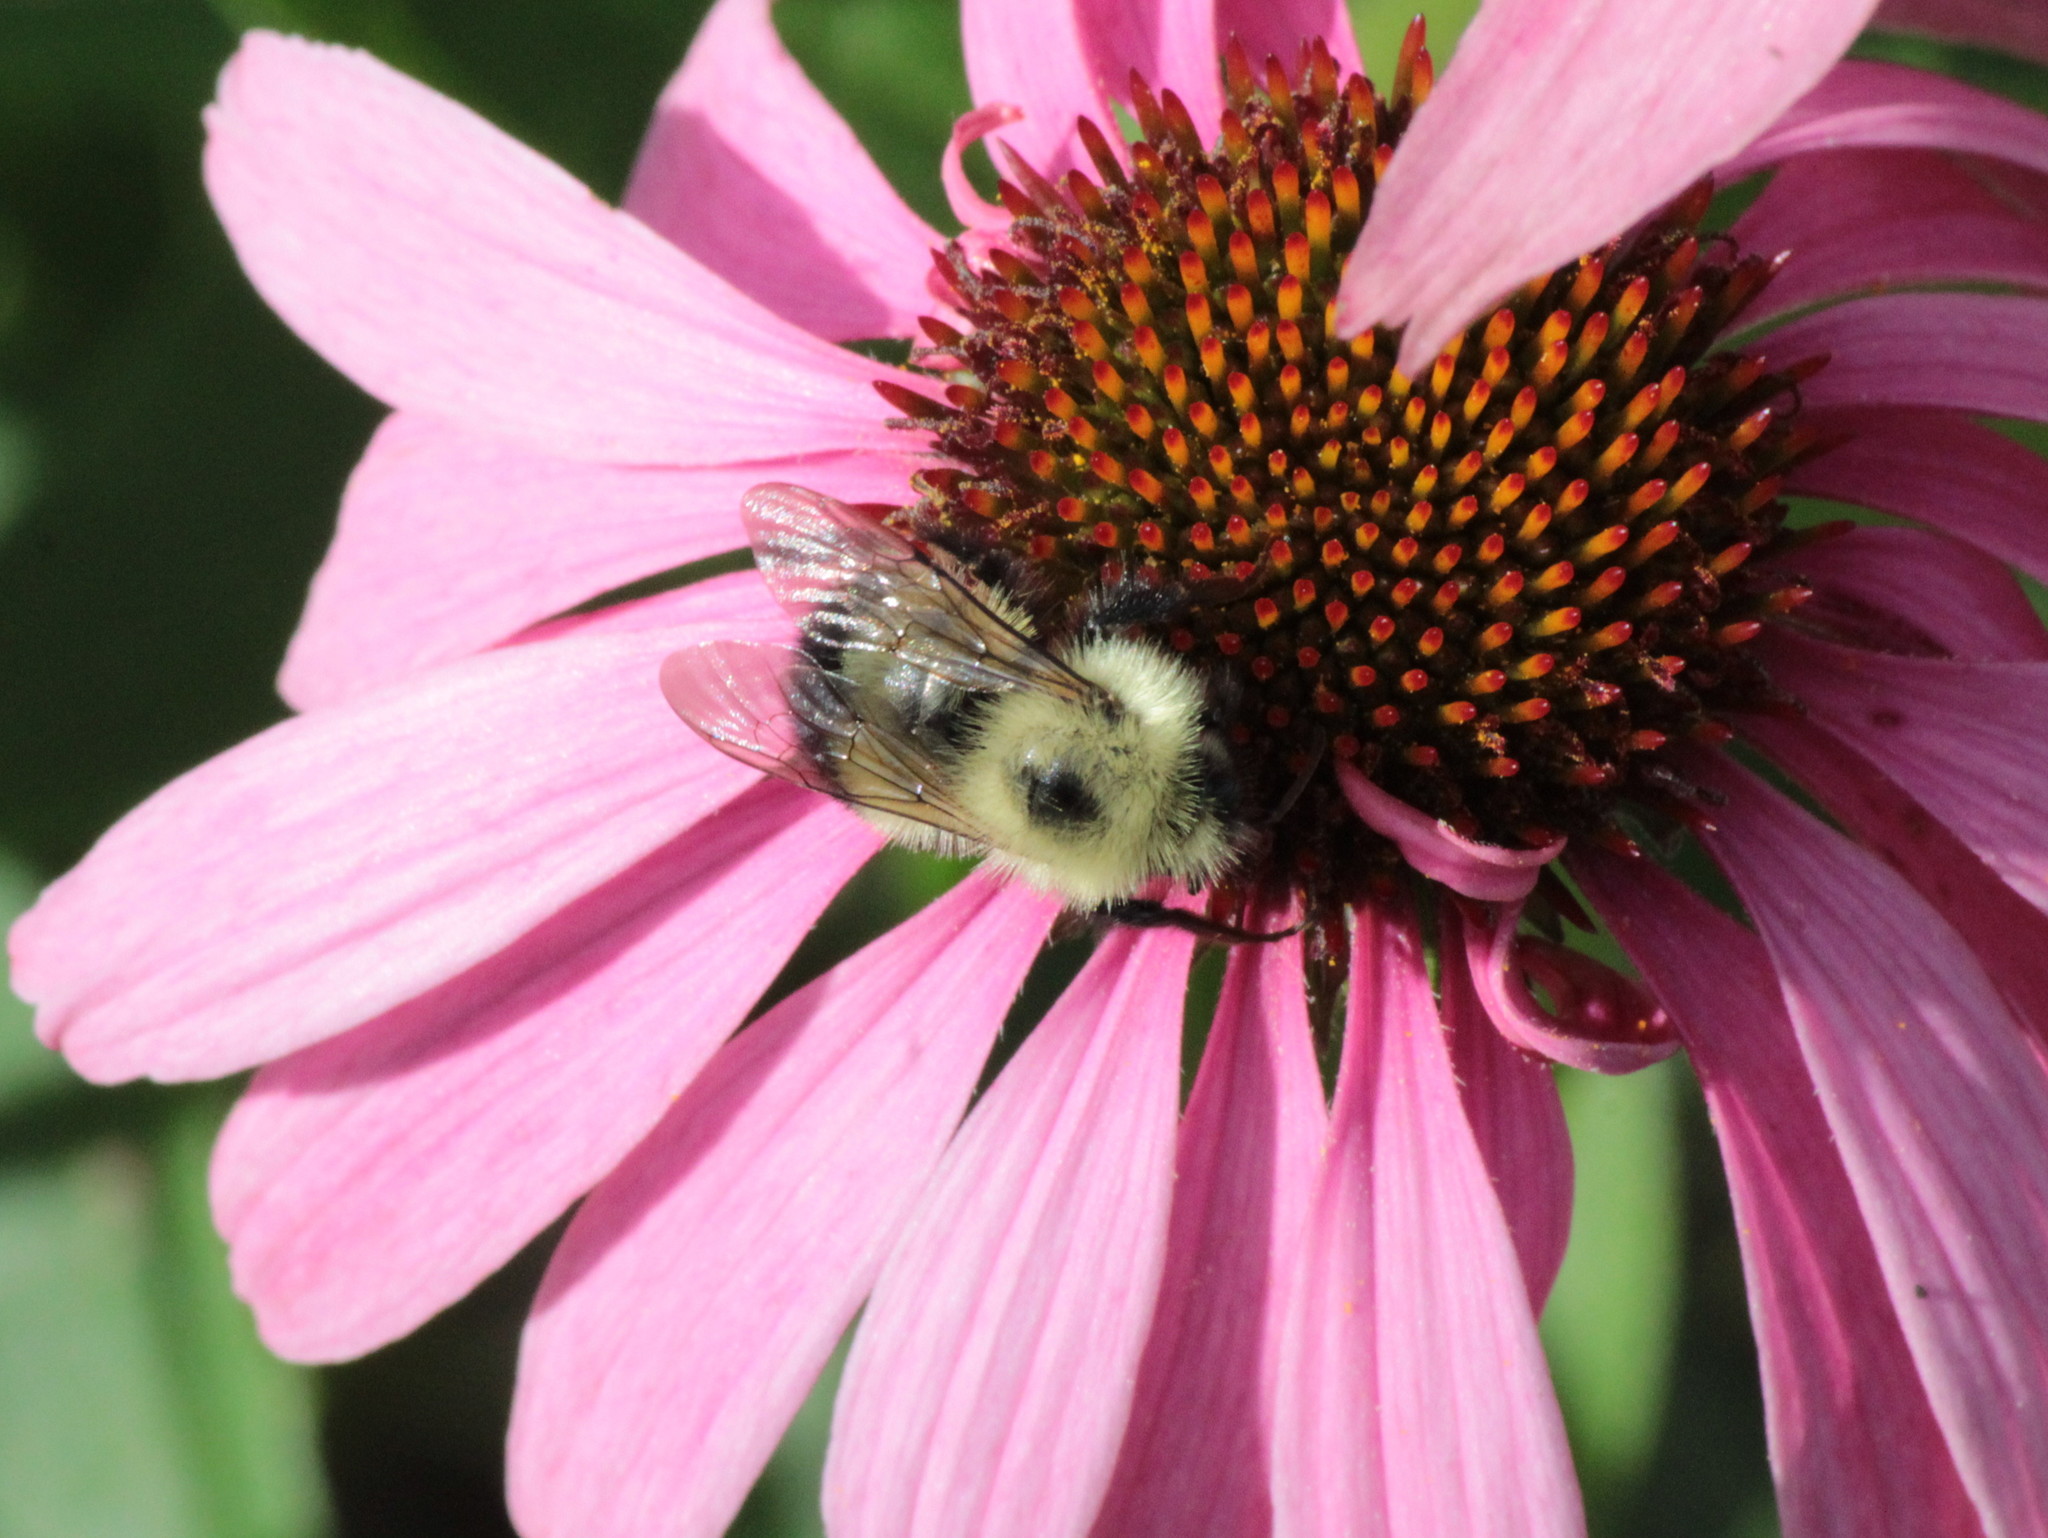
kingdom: Animalia
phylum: Arthropoda
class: Insecta
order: Hymenoptera
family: Apidae
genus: Pyrobombus
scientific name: Pyrobombus
